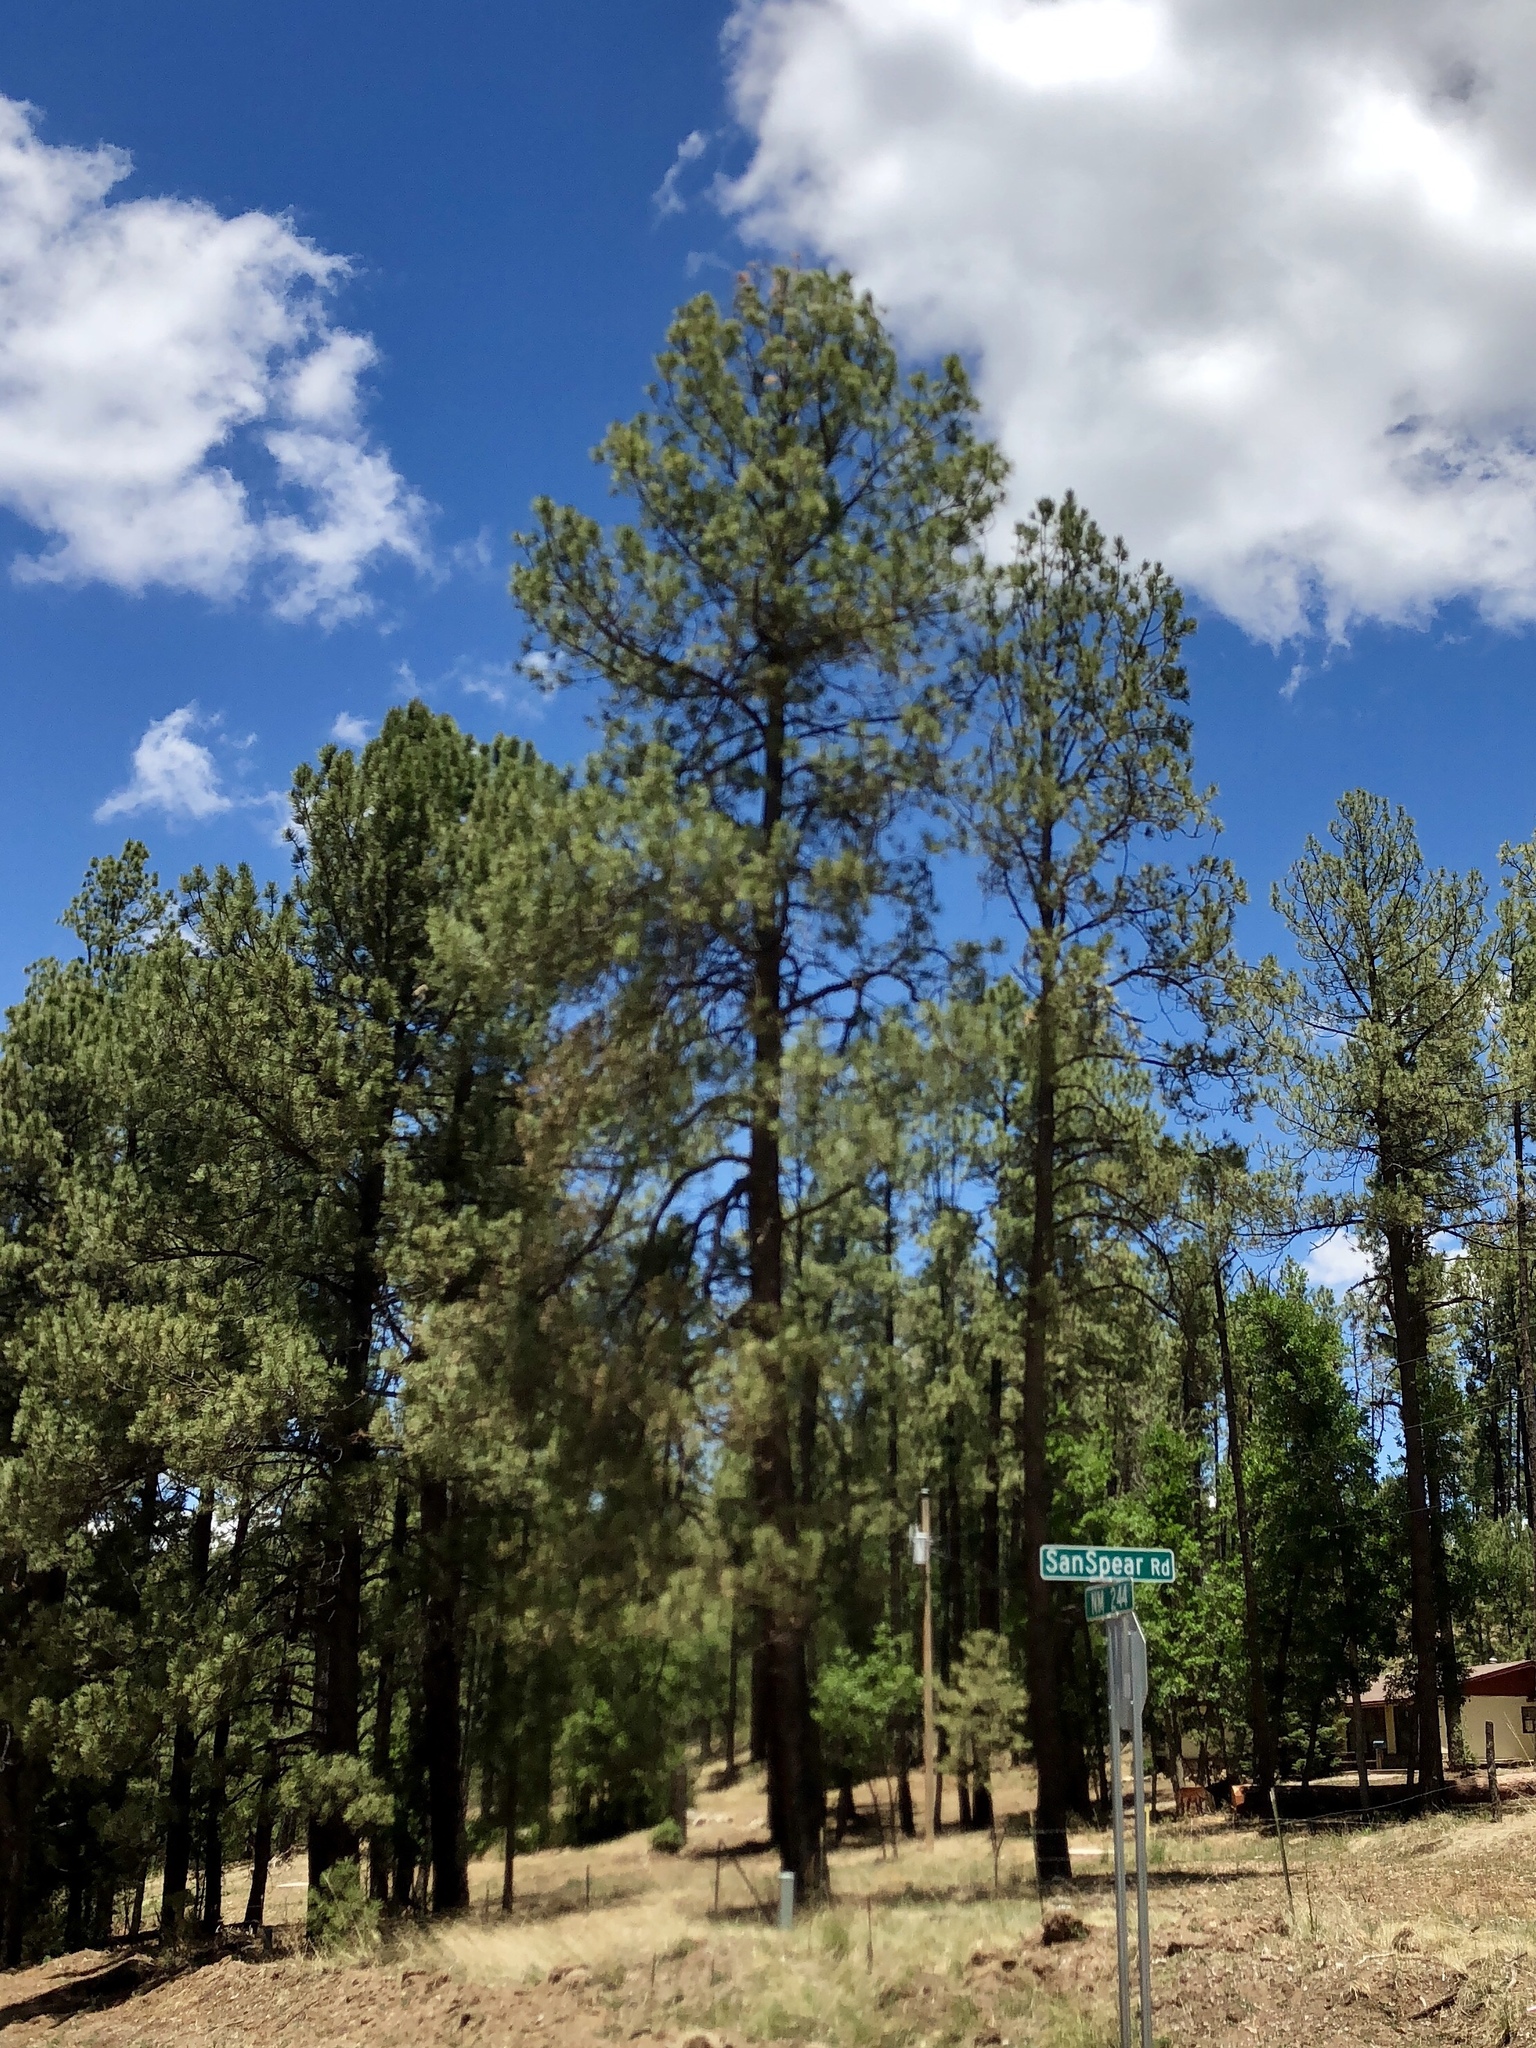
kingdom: Plantae
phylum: Tracheophyta
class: Pinopsida
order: Pinales
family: Pinaceae
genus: Pinus
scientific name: Pinus ponderosa
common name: Western yellow-pine
